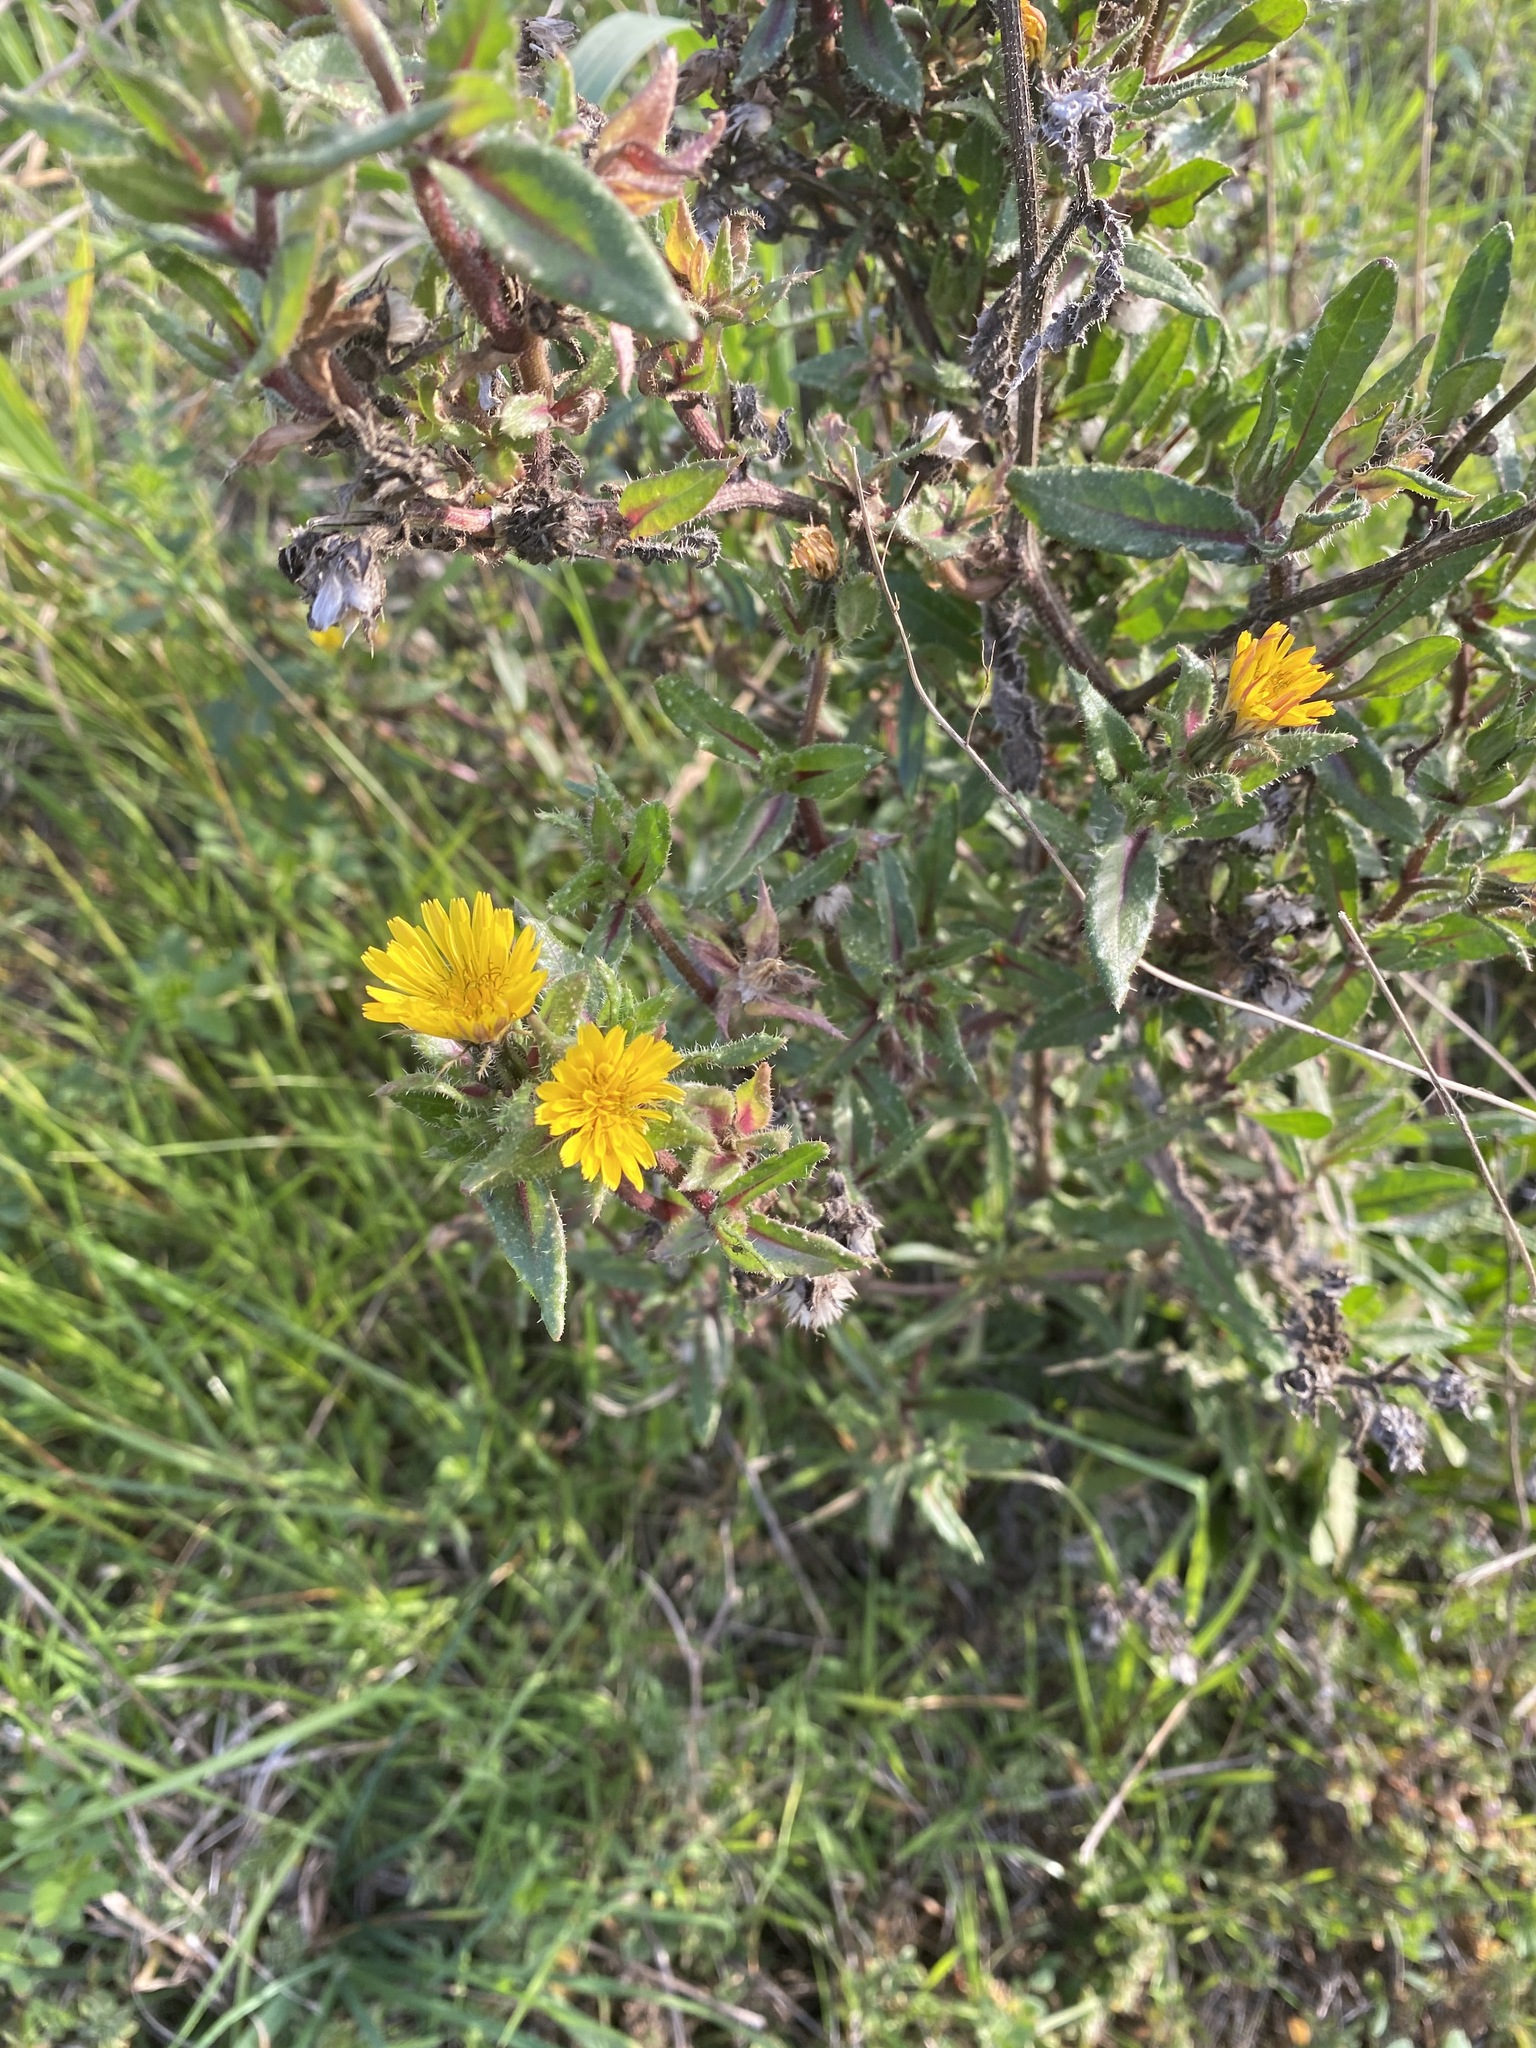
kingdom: Plantae
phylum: Tracheophyta
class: Magnoliopsida
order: Asterales
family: Asteraceae
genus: Helminthotheca
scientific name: Helminthotheca echioides
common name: Ox-tongue
